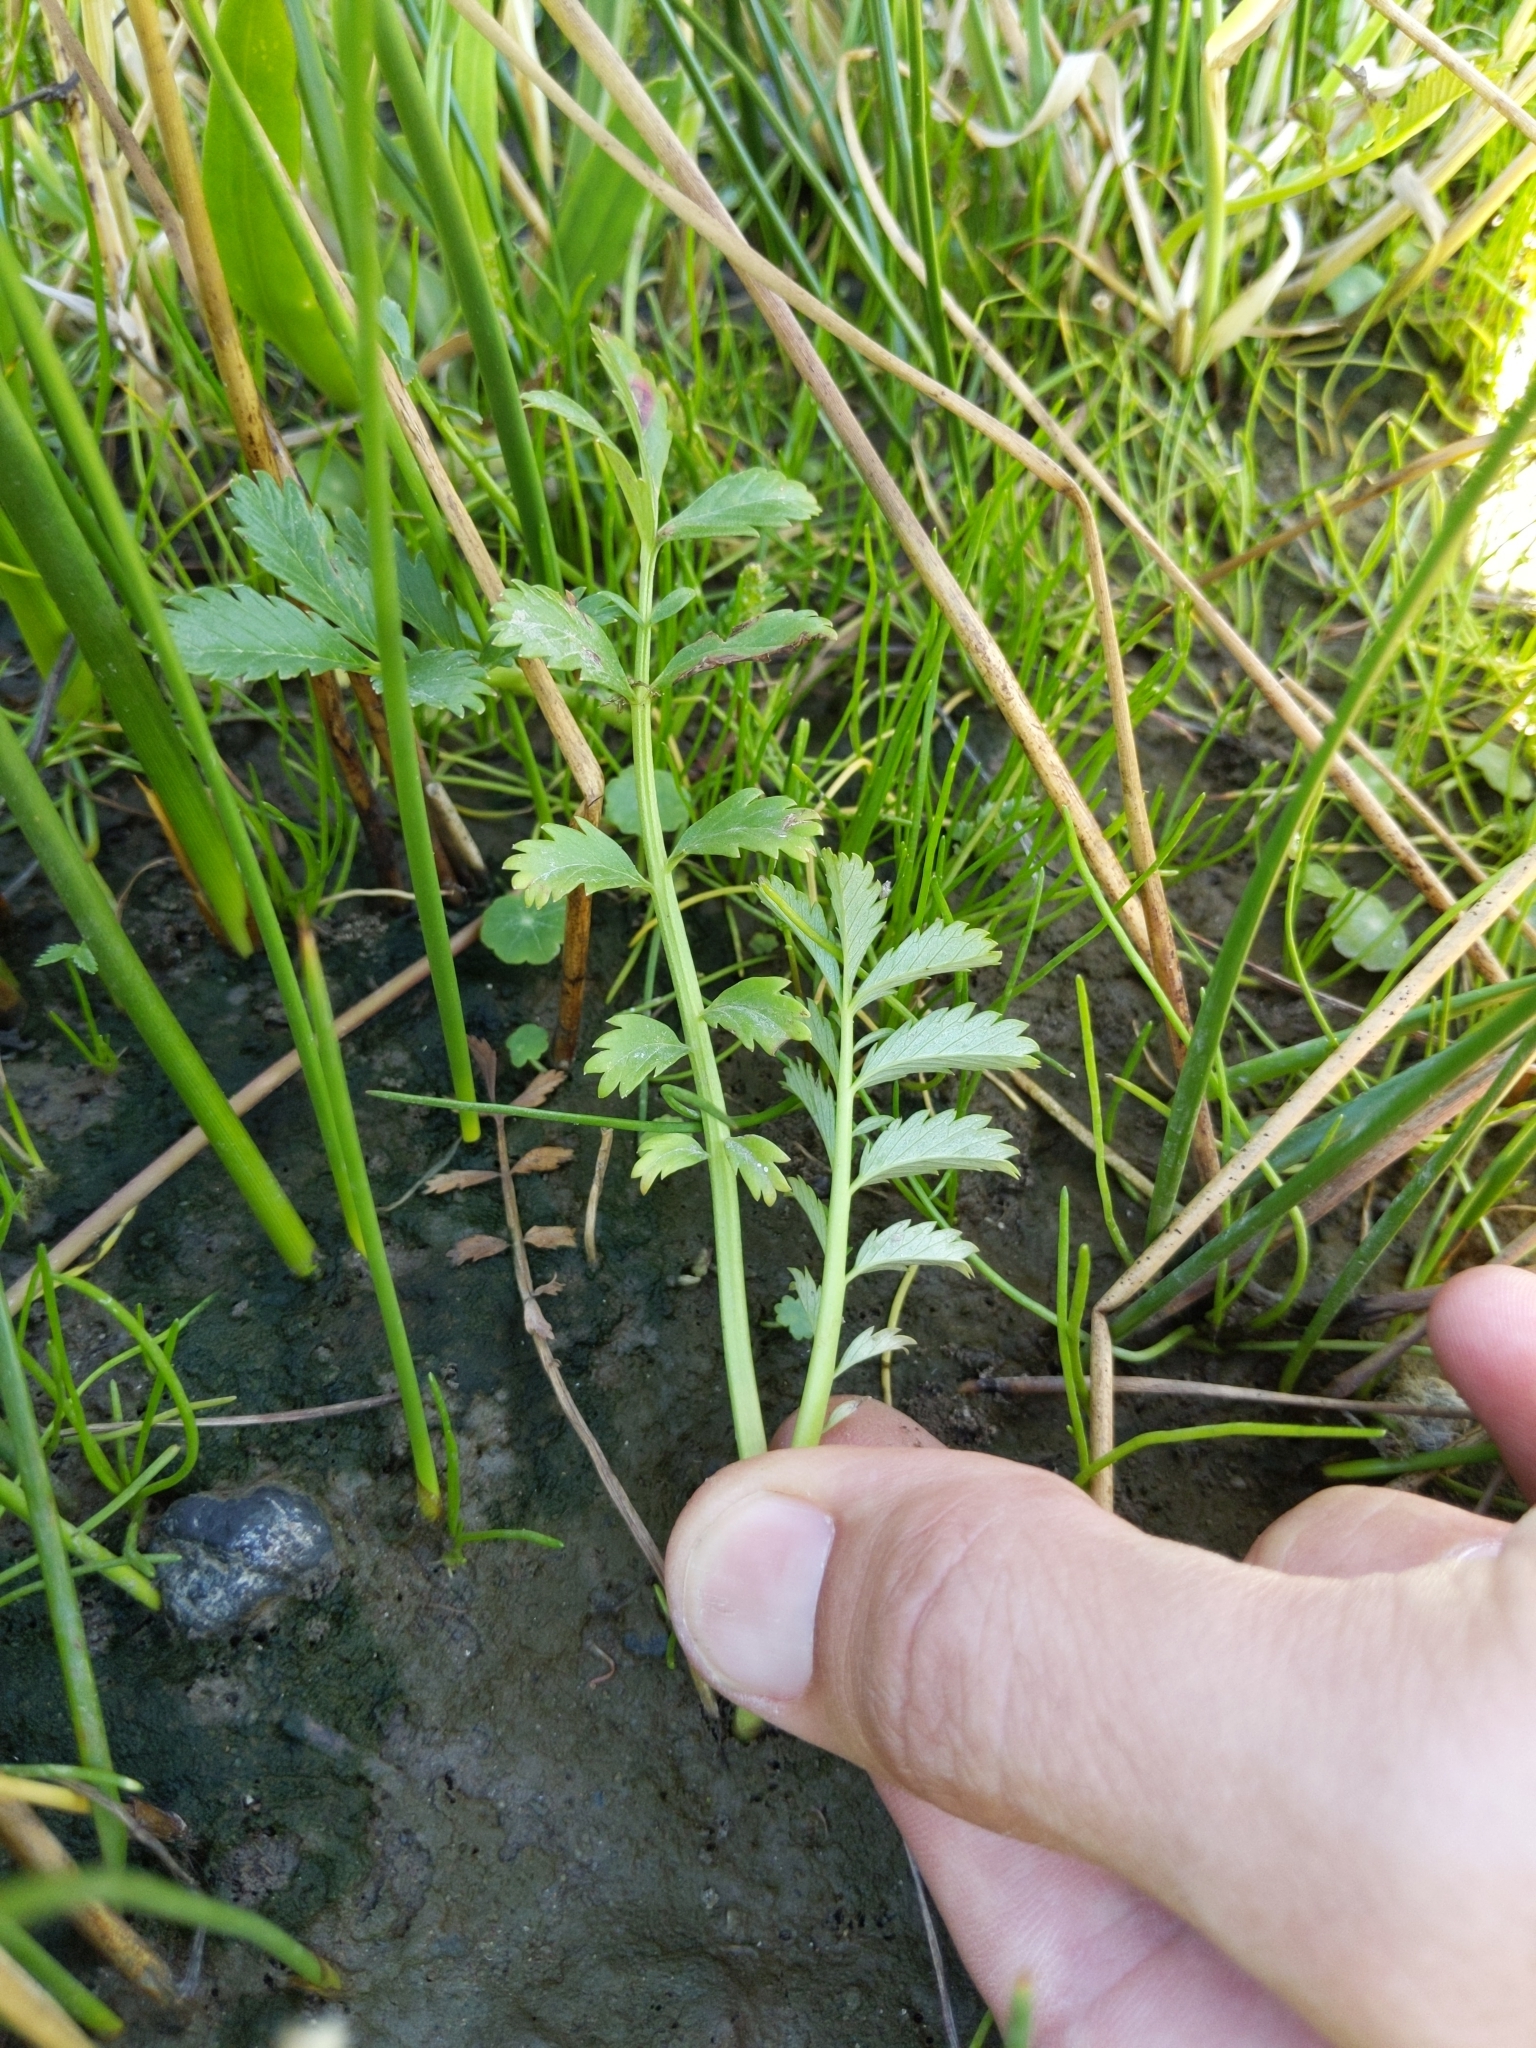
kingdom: Plantae
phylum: Tracheophyta
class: Magnoliopsida
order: Rosales
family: Rosaceae
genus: Argentina
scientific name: Argentina anserina
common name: Common silverweed
